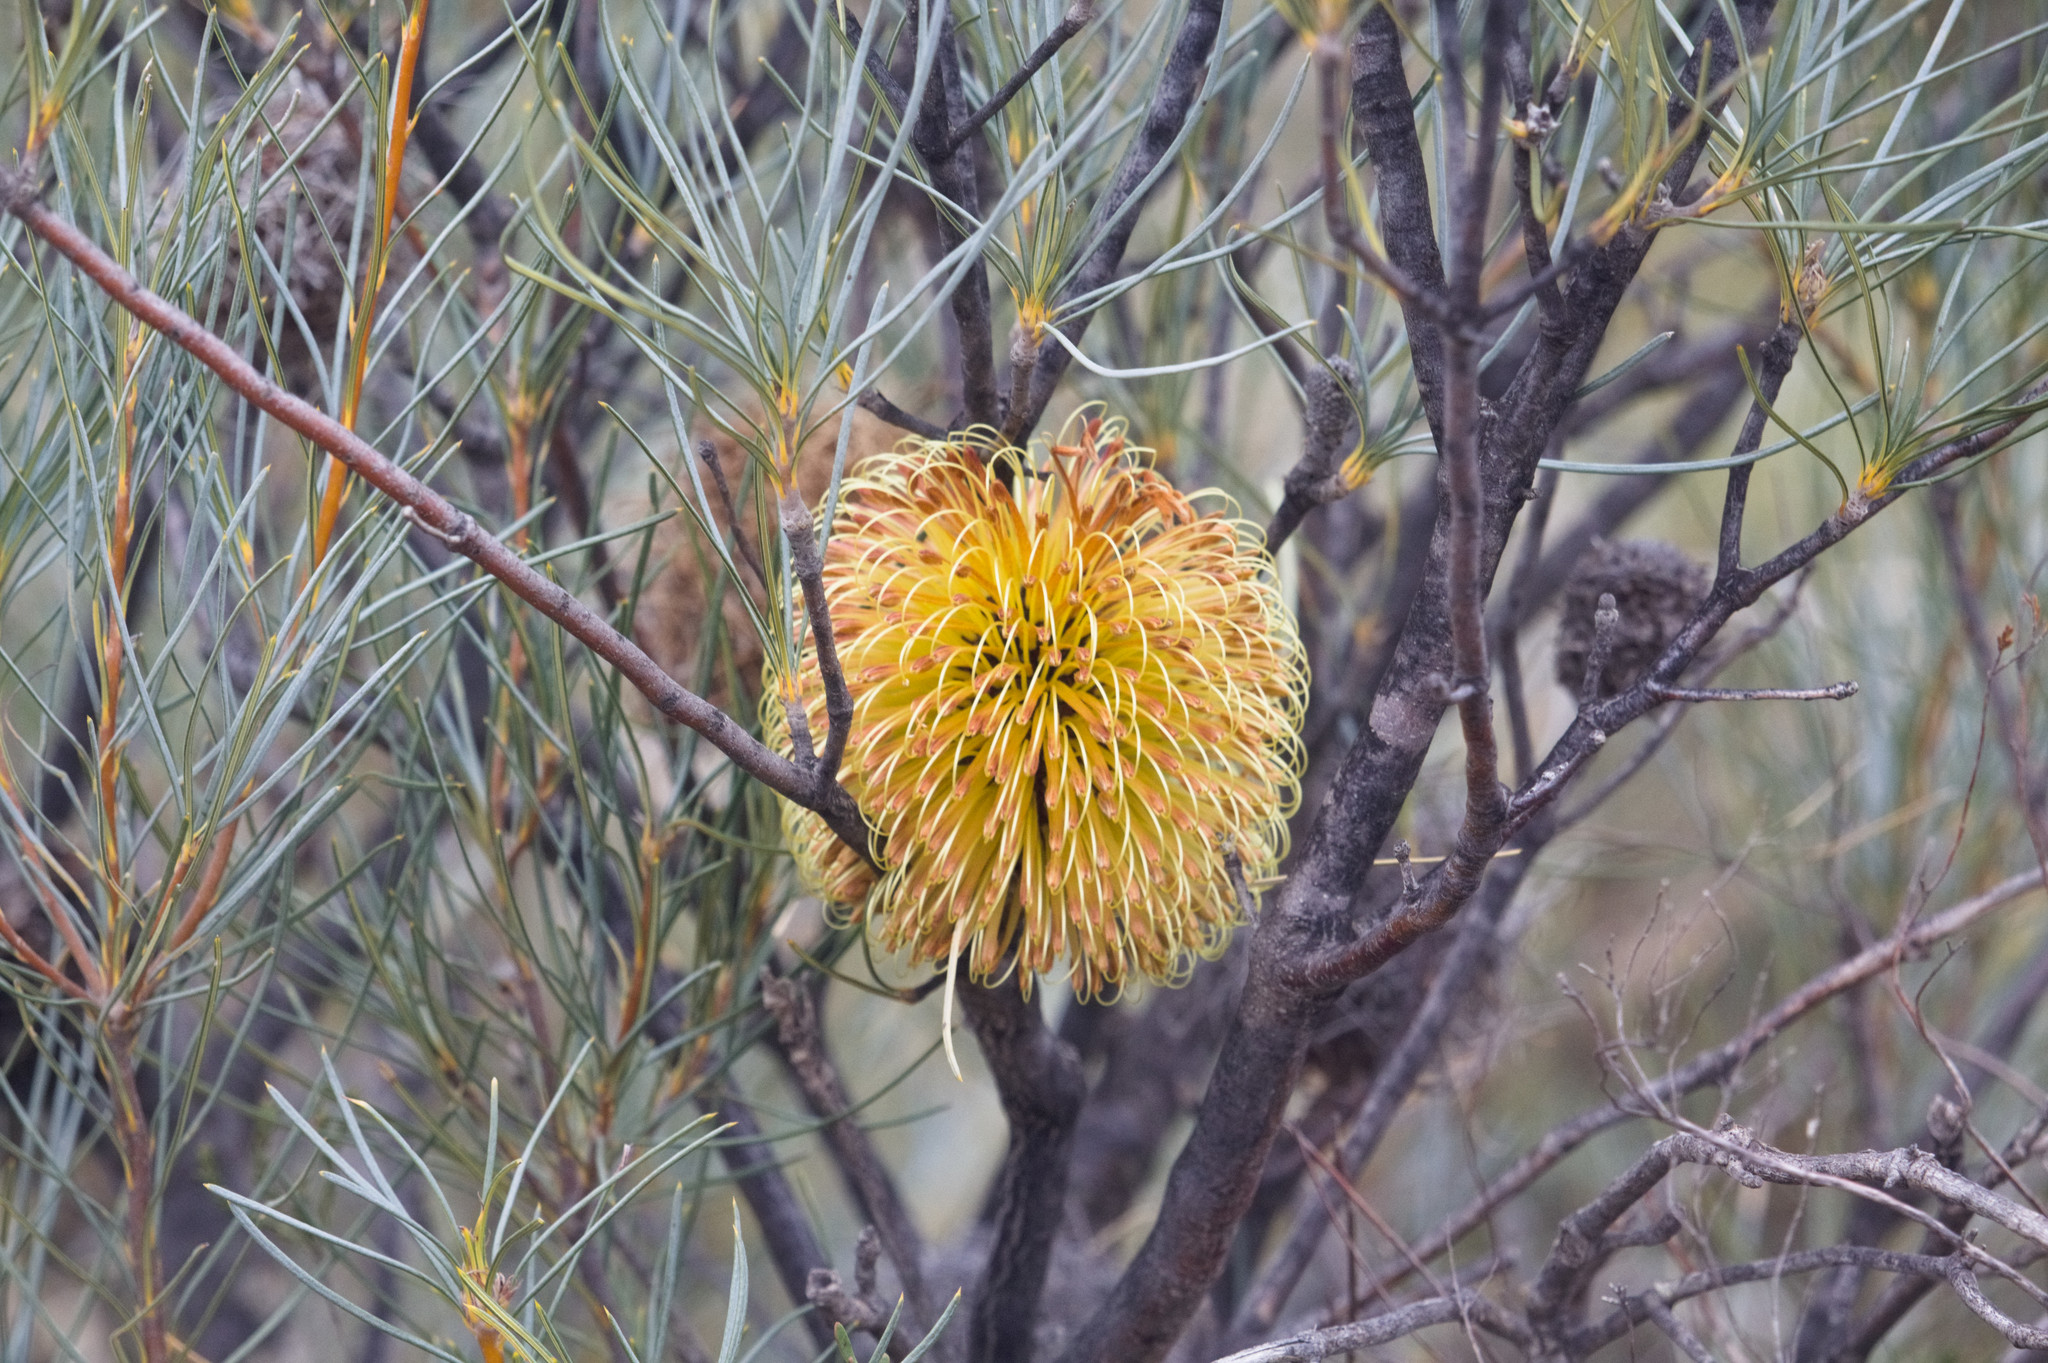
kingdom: Plantae
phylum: Tracheophyta
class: Magnoliopsida
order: Proteales
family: Proteaceae
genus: Banksia
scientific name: Banksia sphaerocarpa
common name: Fox banksia
